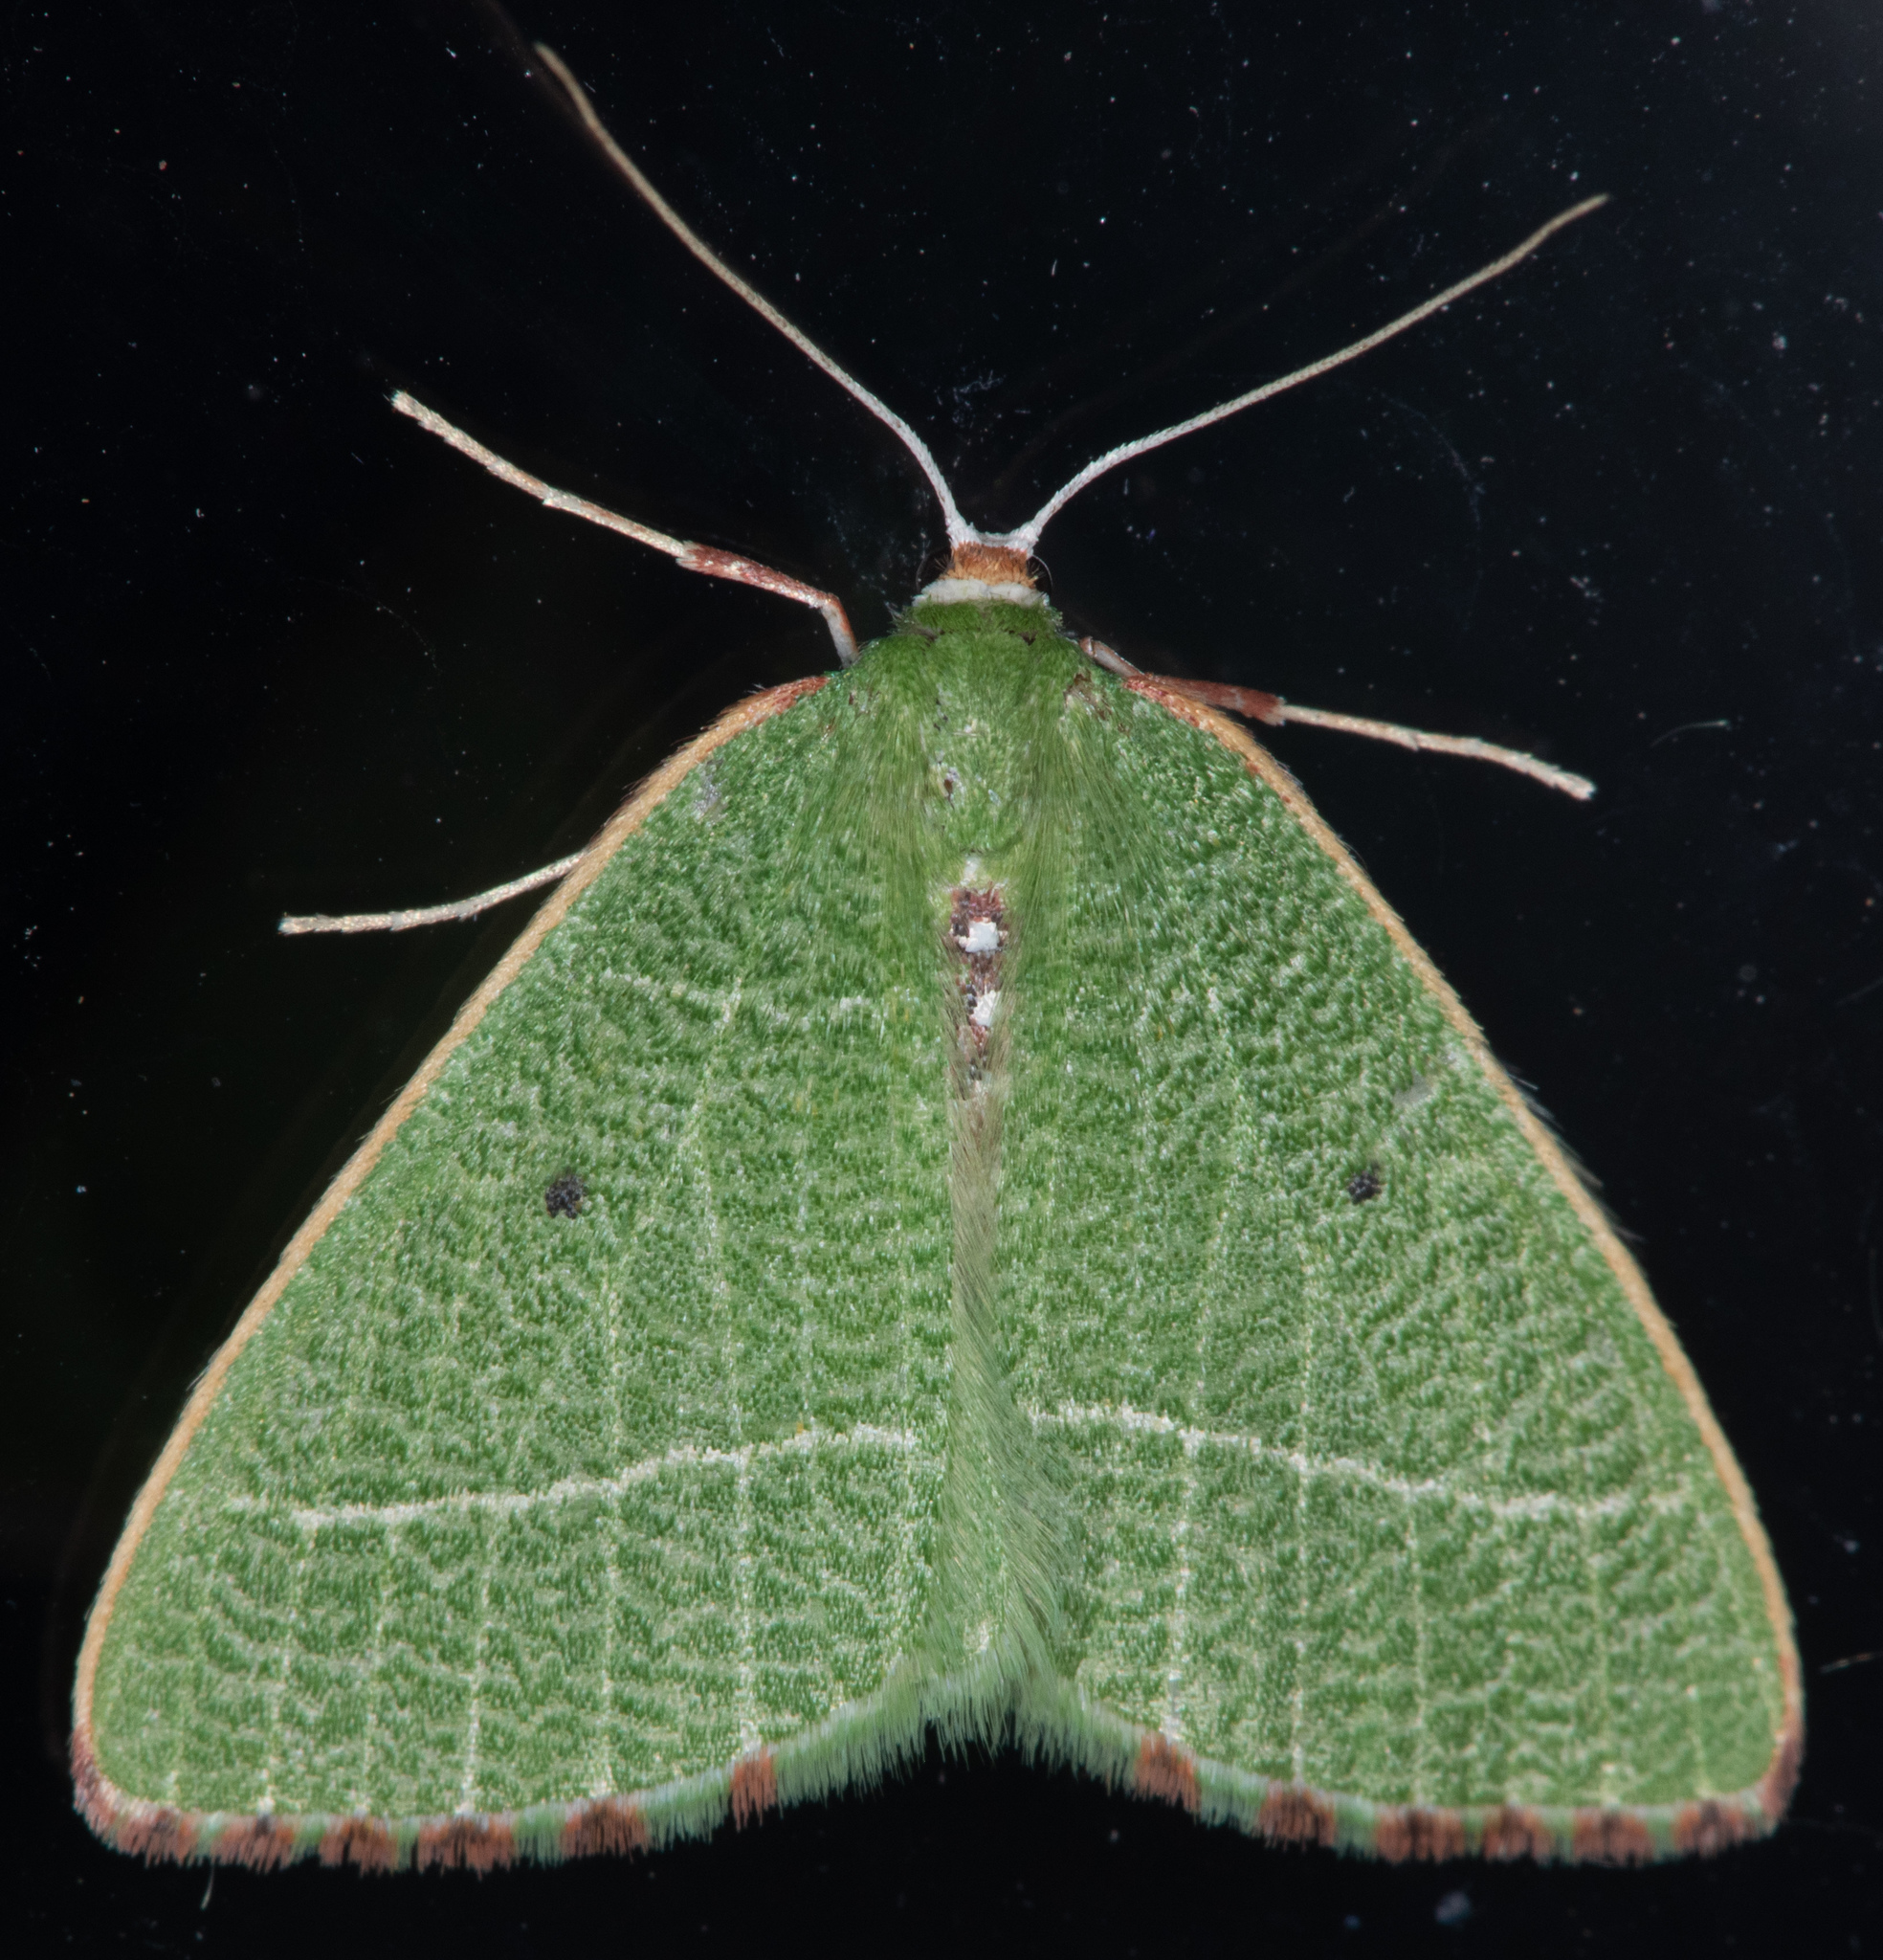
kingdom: Animalia
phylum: Arthropoda
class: Insecta
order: Lepidoptera
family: Geometridae
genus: Nemoria
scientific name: Nemoria pulcherrima
